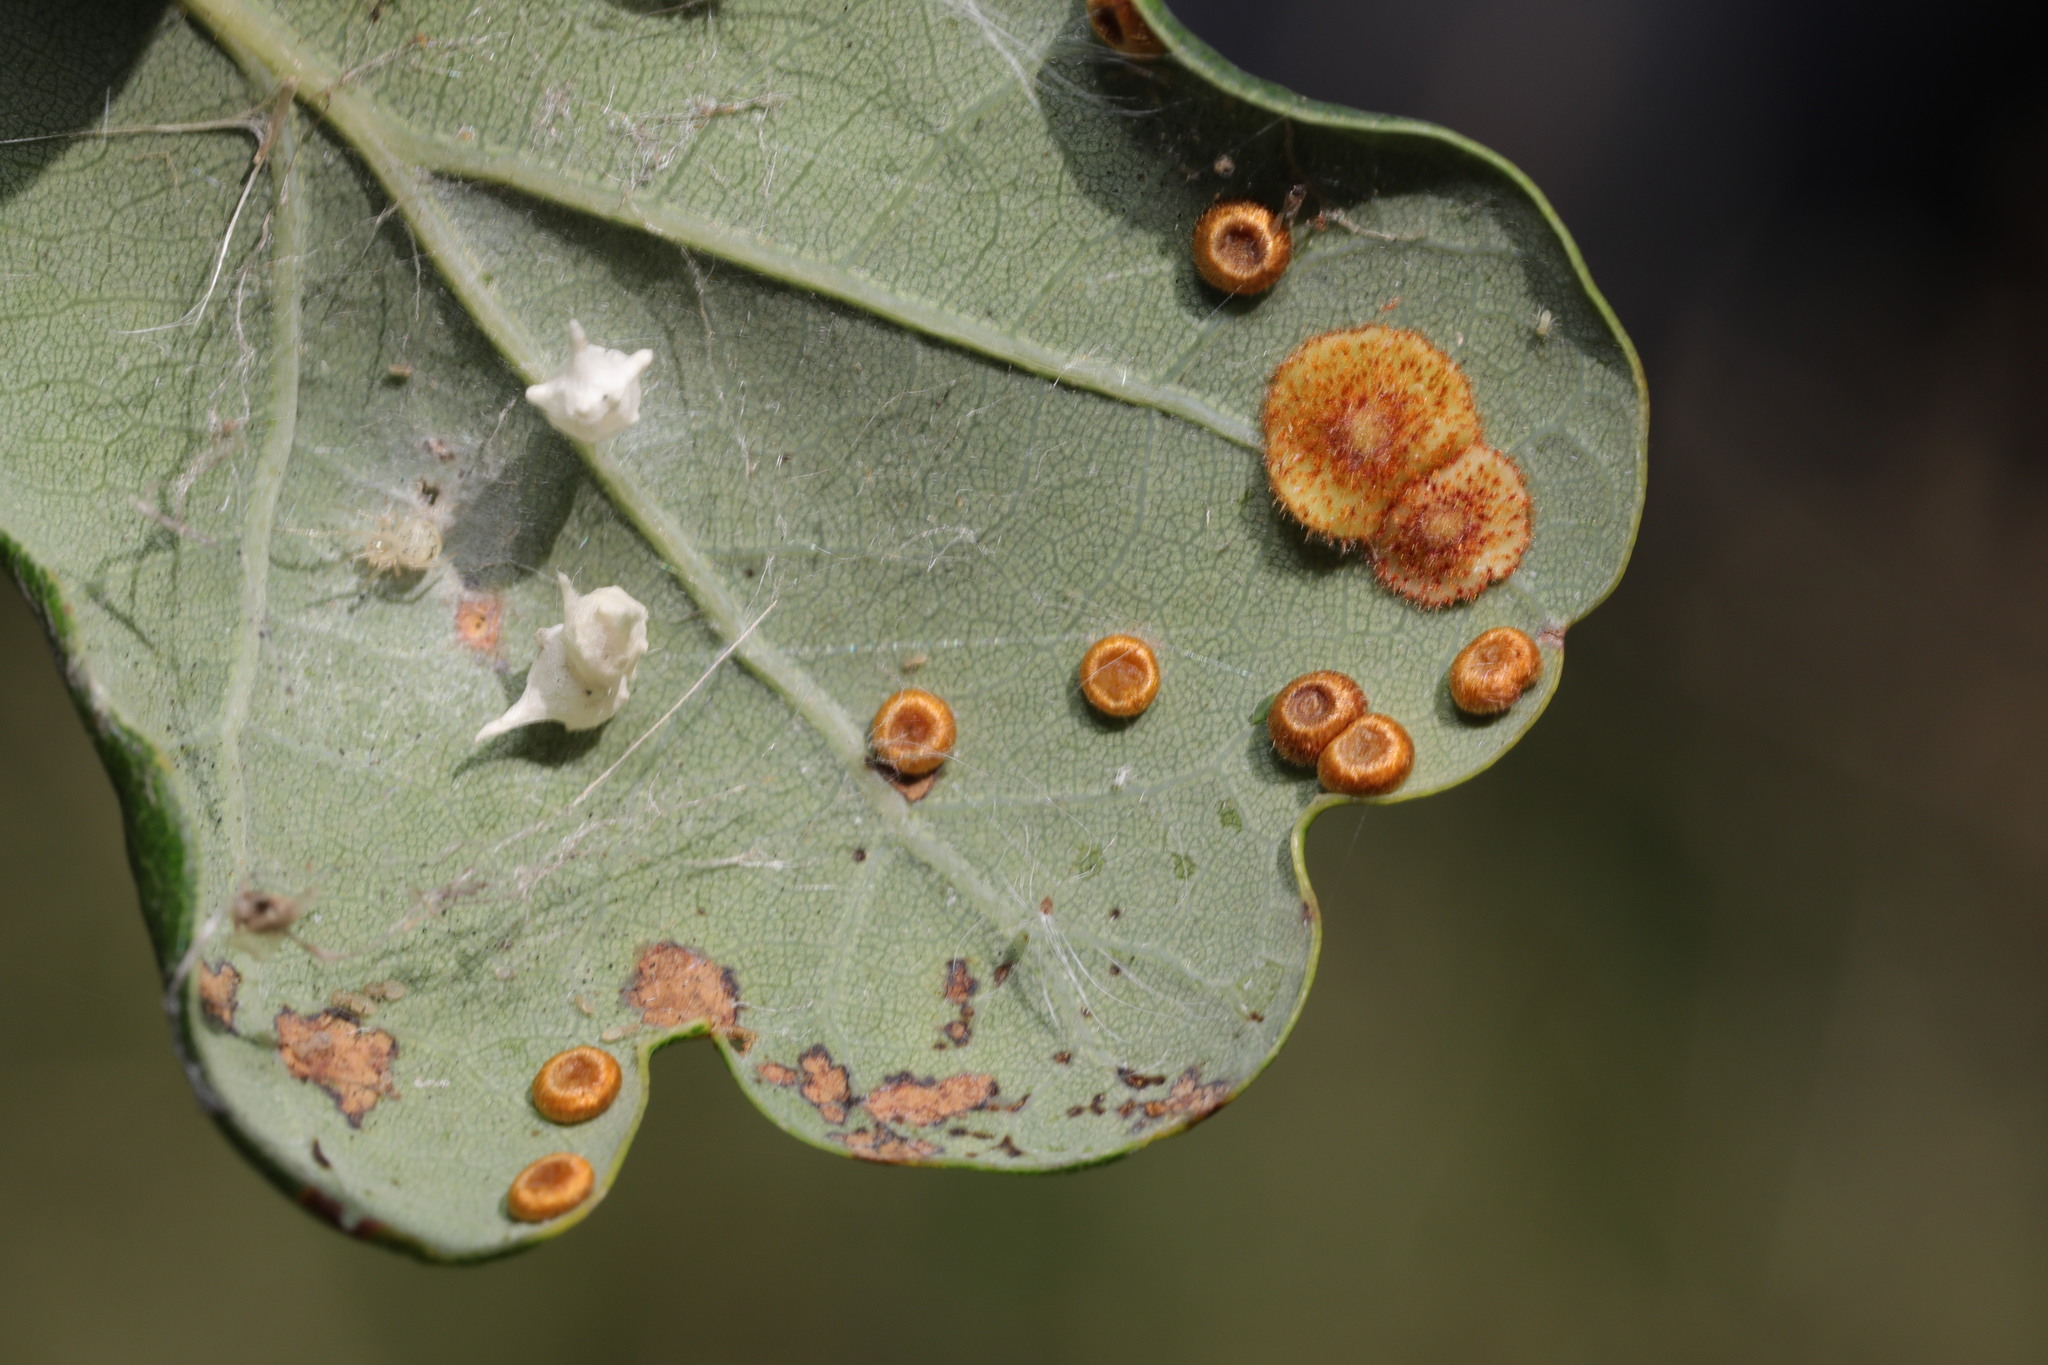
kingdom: Animalia
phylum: Arthropoda
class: Arachnida
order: Araneae
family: Theridiidae
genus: Paidiscura
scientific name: Paidiscura pallens
